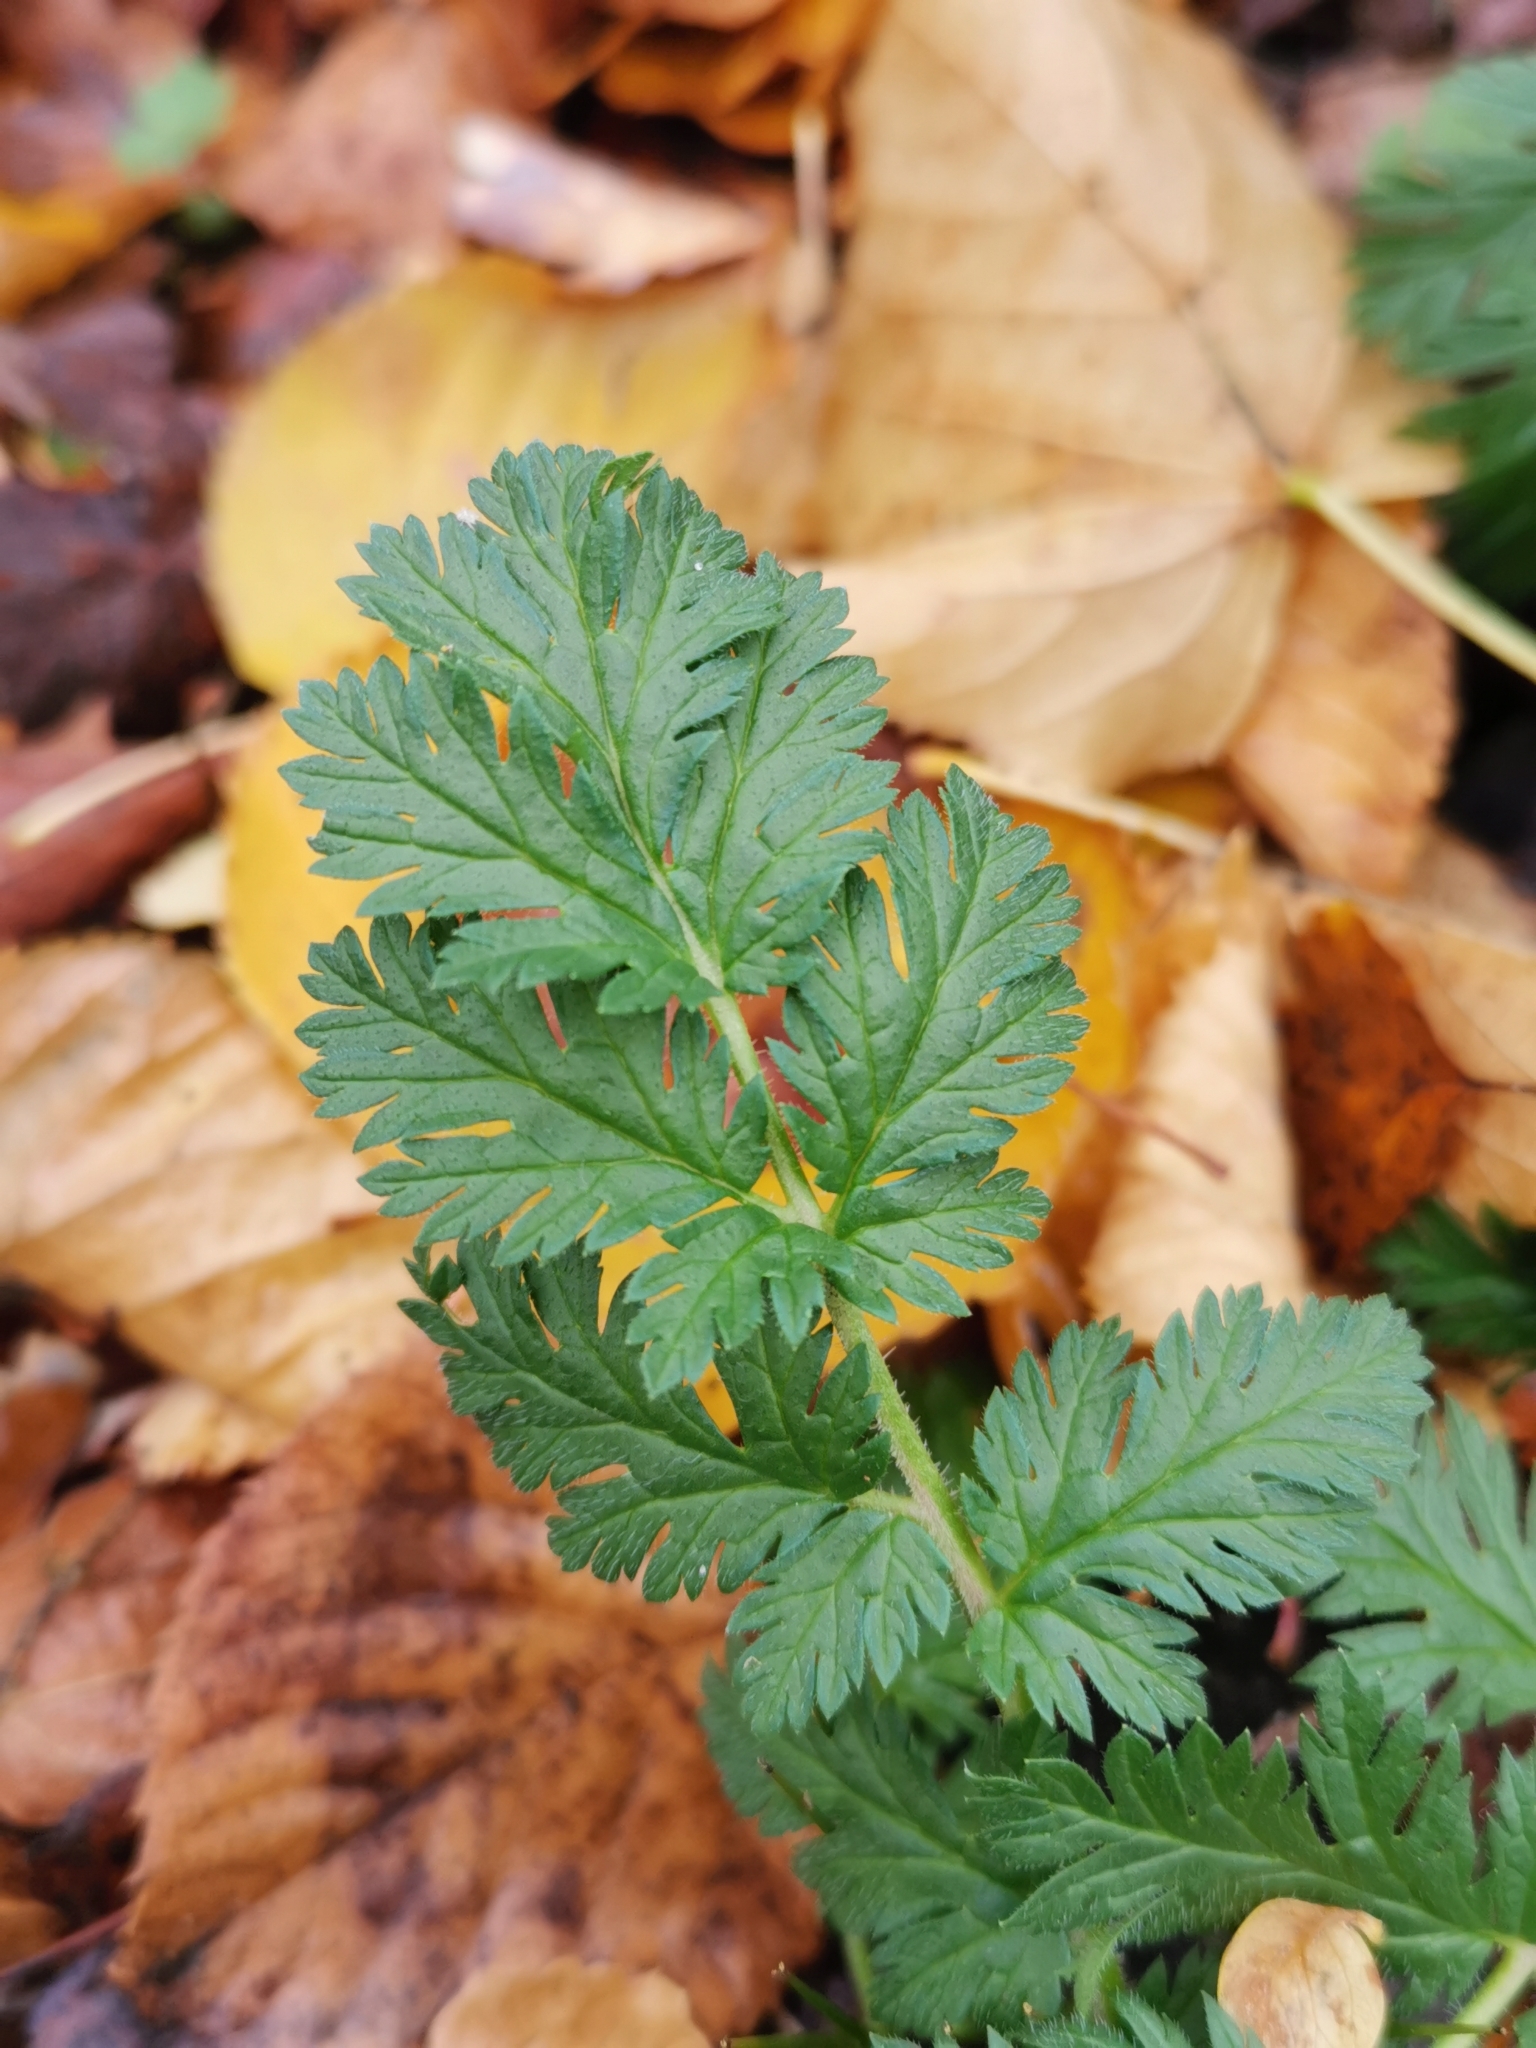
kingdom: Plantae
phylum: Tracheophyta
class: Magnoliopsida
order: Geraniales
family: Geraniaceae
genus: Erodium
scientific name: Erodium cicutarium
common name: Common stork's-bill
